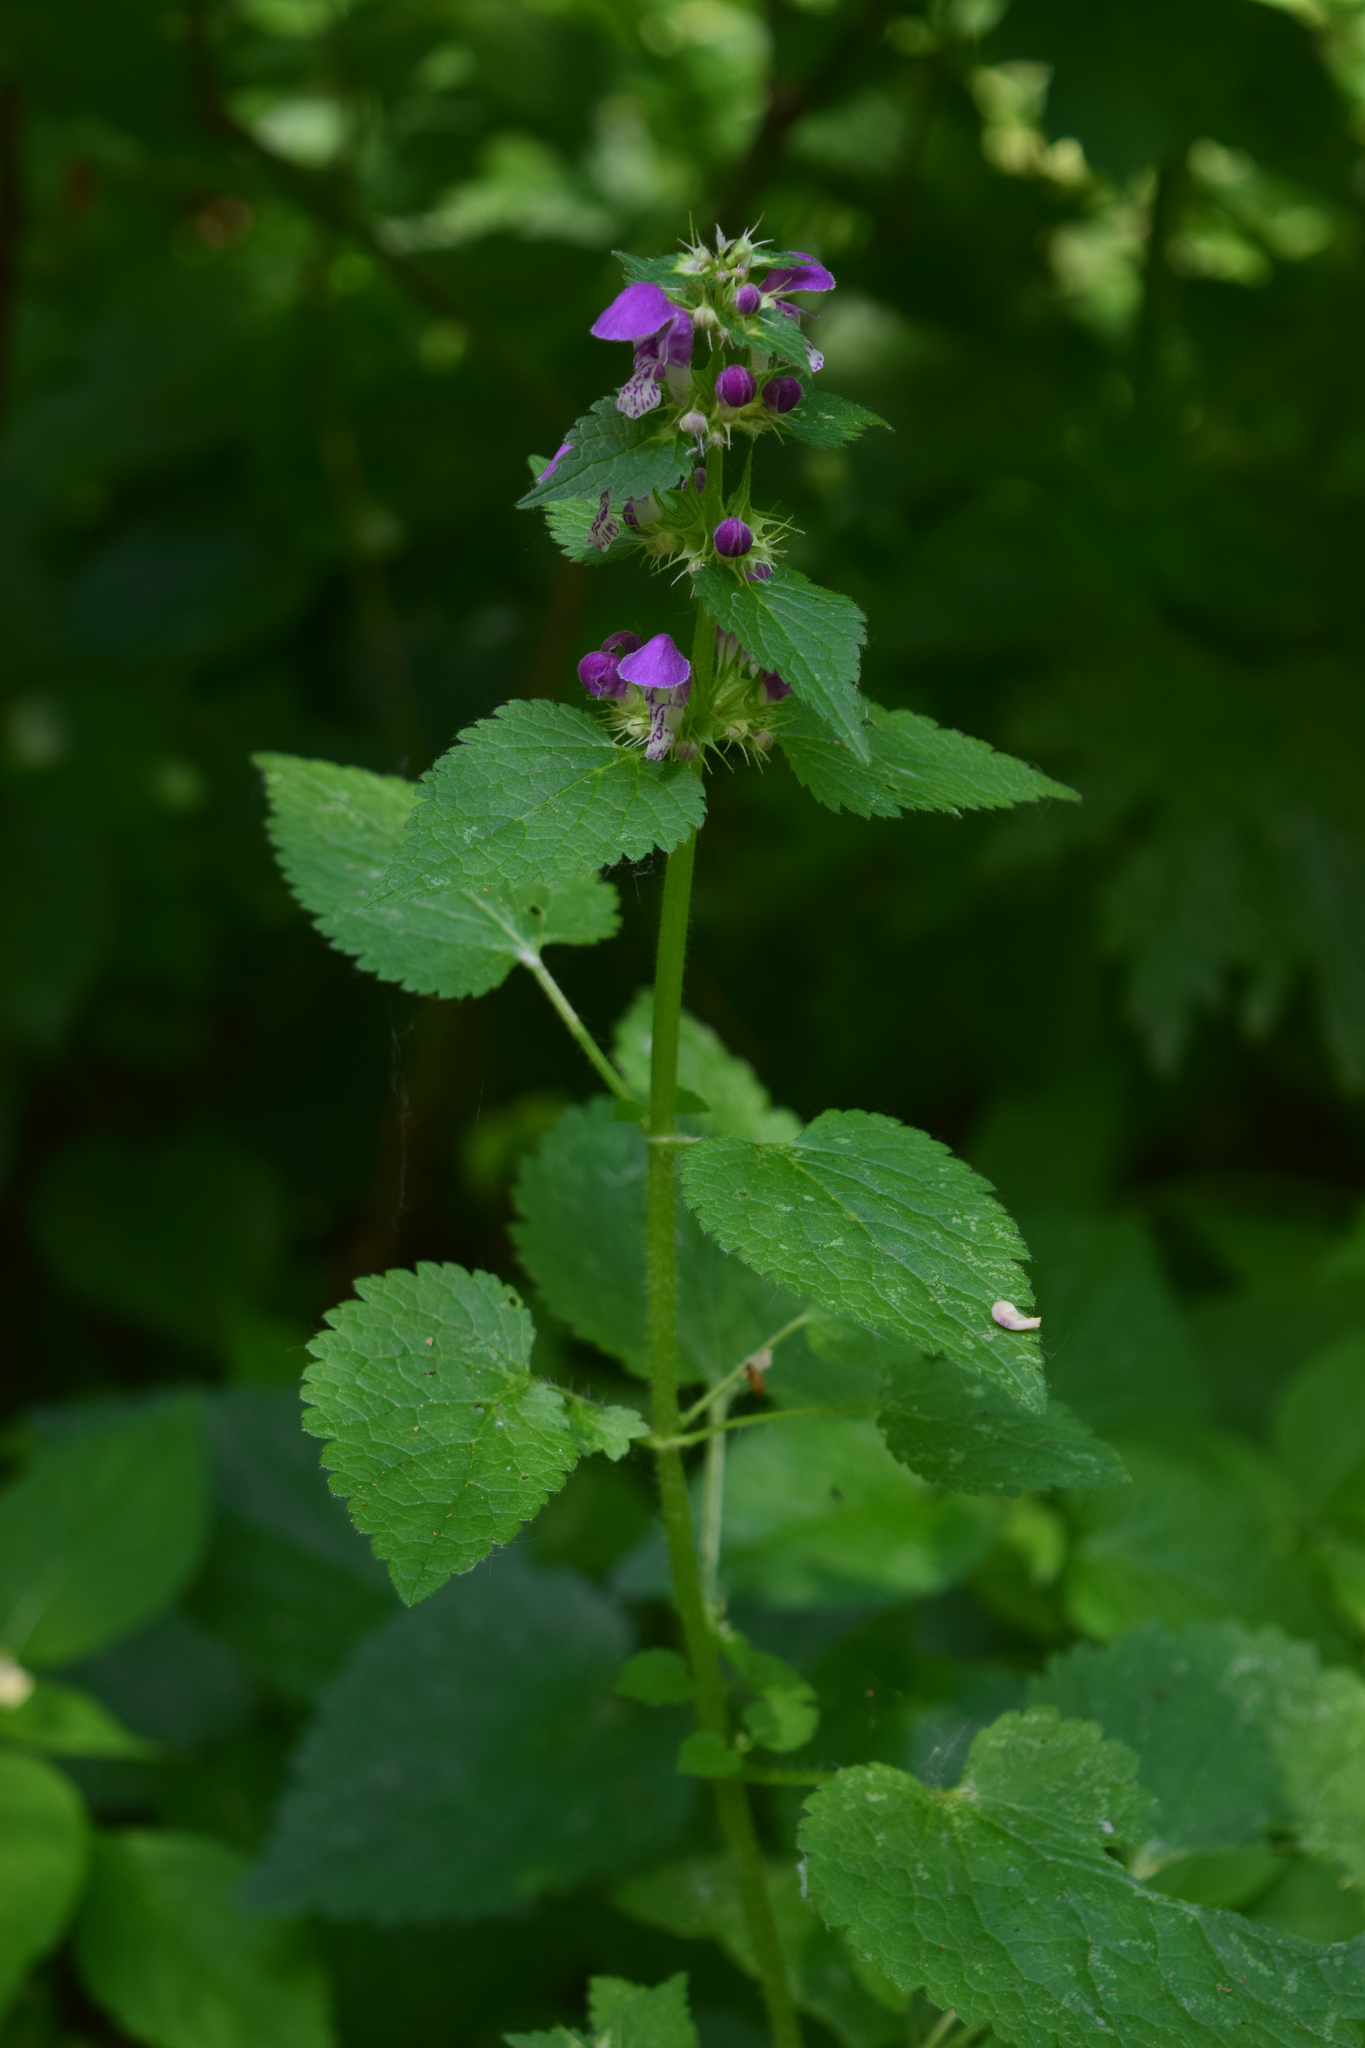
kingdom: Plantae
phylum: Tracheophyta
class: Magnoliopsida
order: Lamiales
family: Lamiaceae
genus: Lamium
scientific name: Lamium maculatum
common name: Spotted dead-nettle
